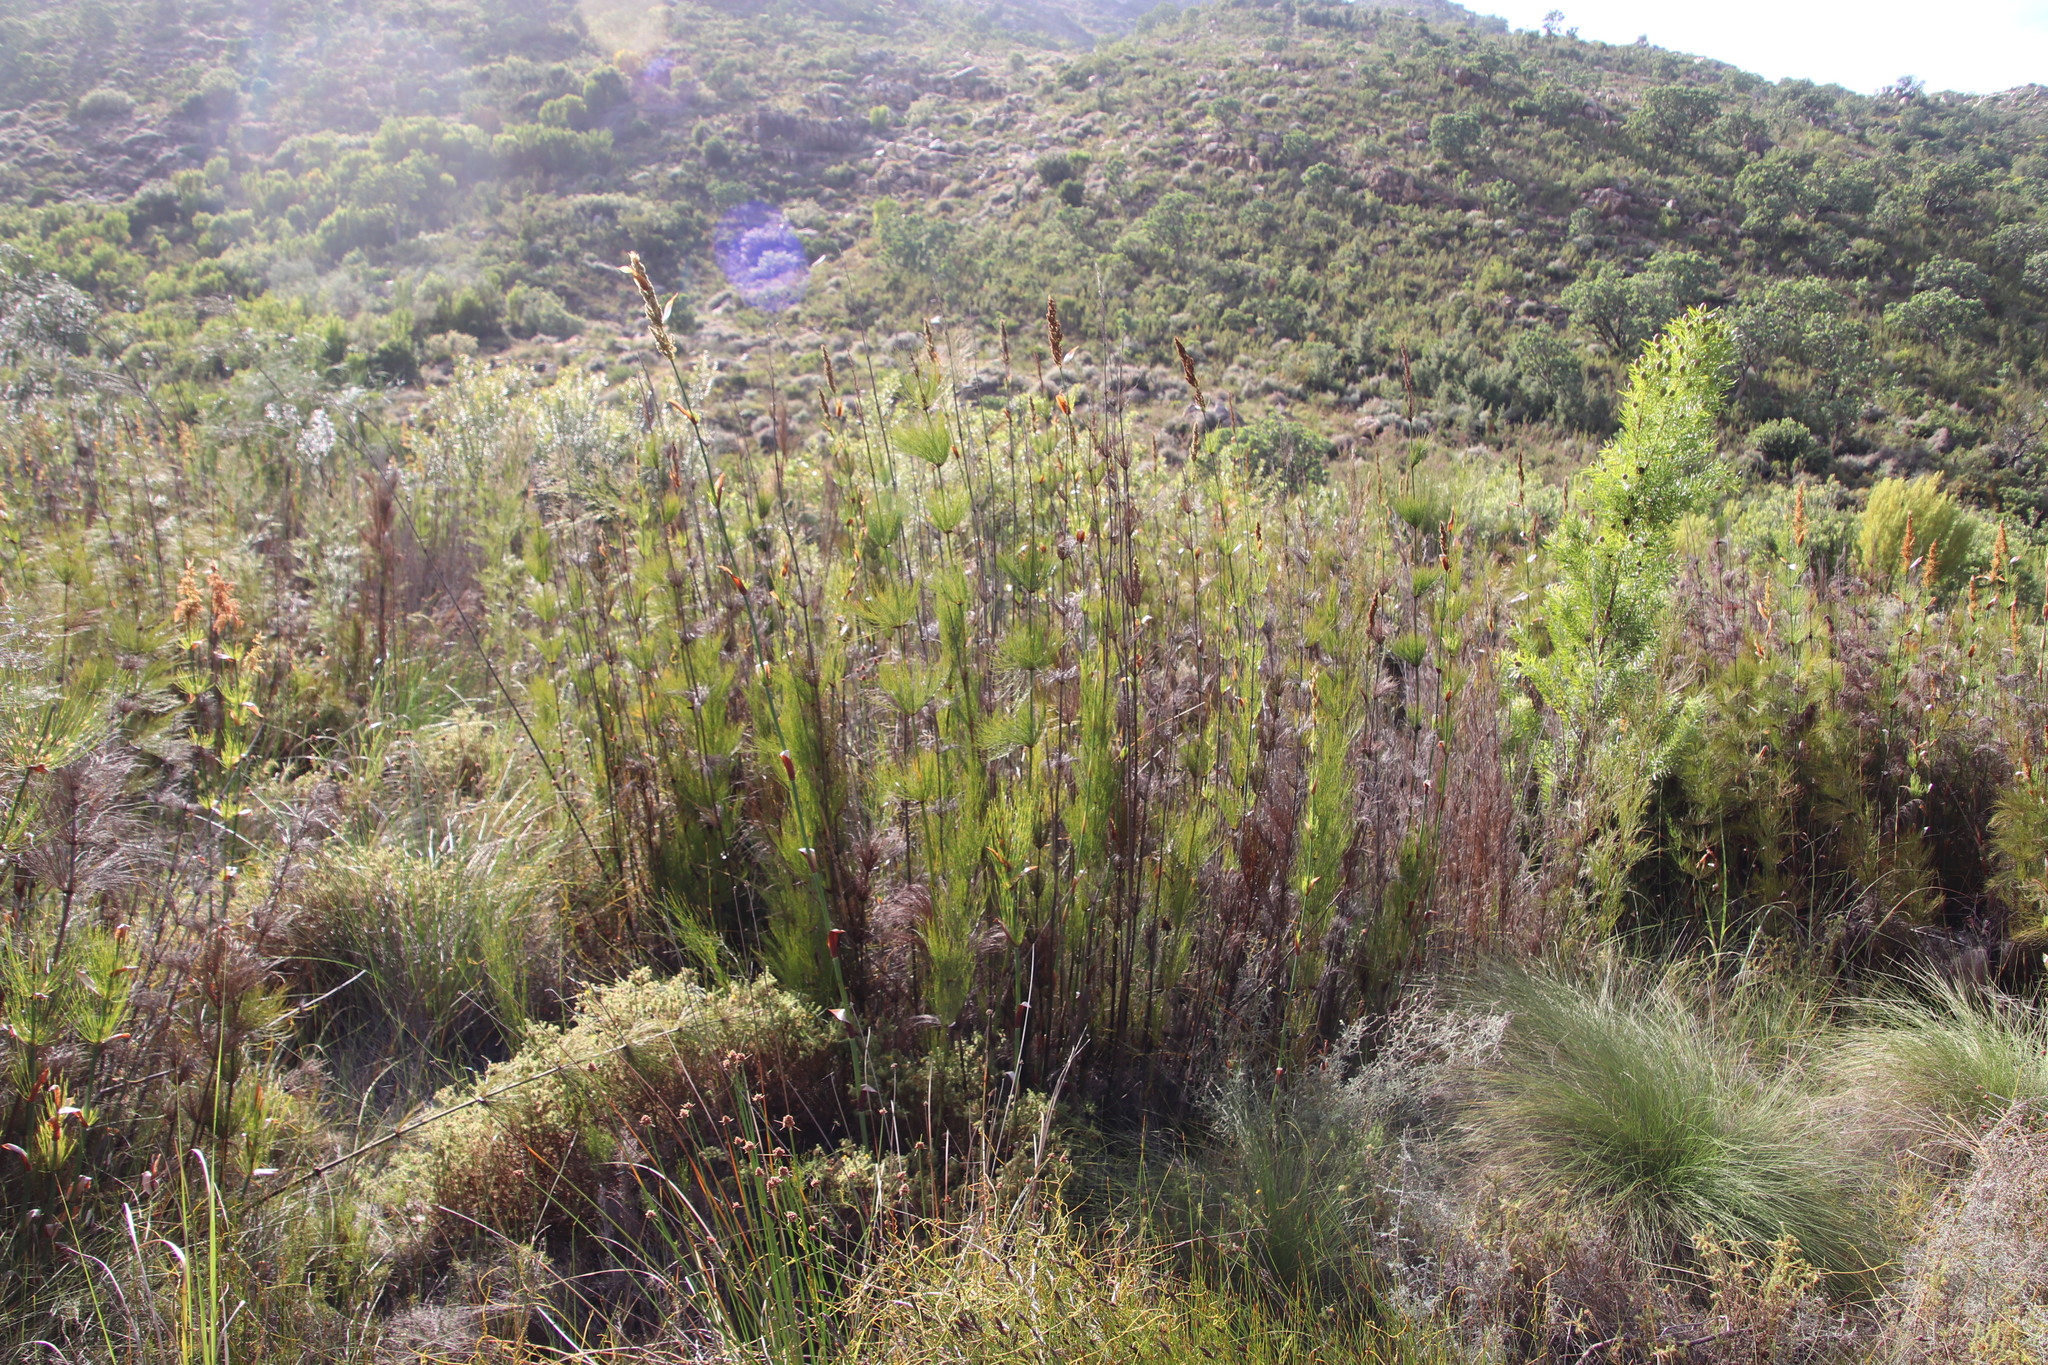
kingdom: Plantae
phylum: Tracheophyta
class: Liliopsida
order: Poales
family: Restionaceae
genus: Elegia
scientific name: Elegia capensis
